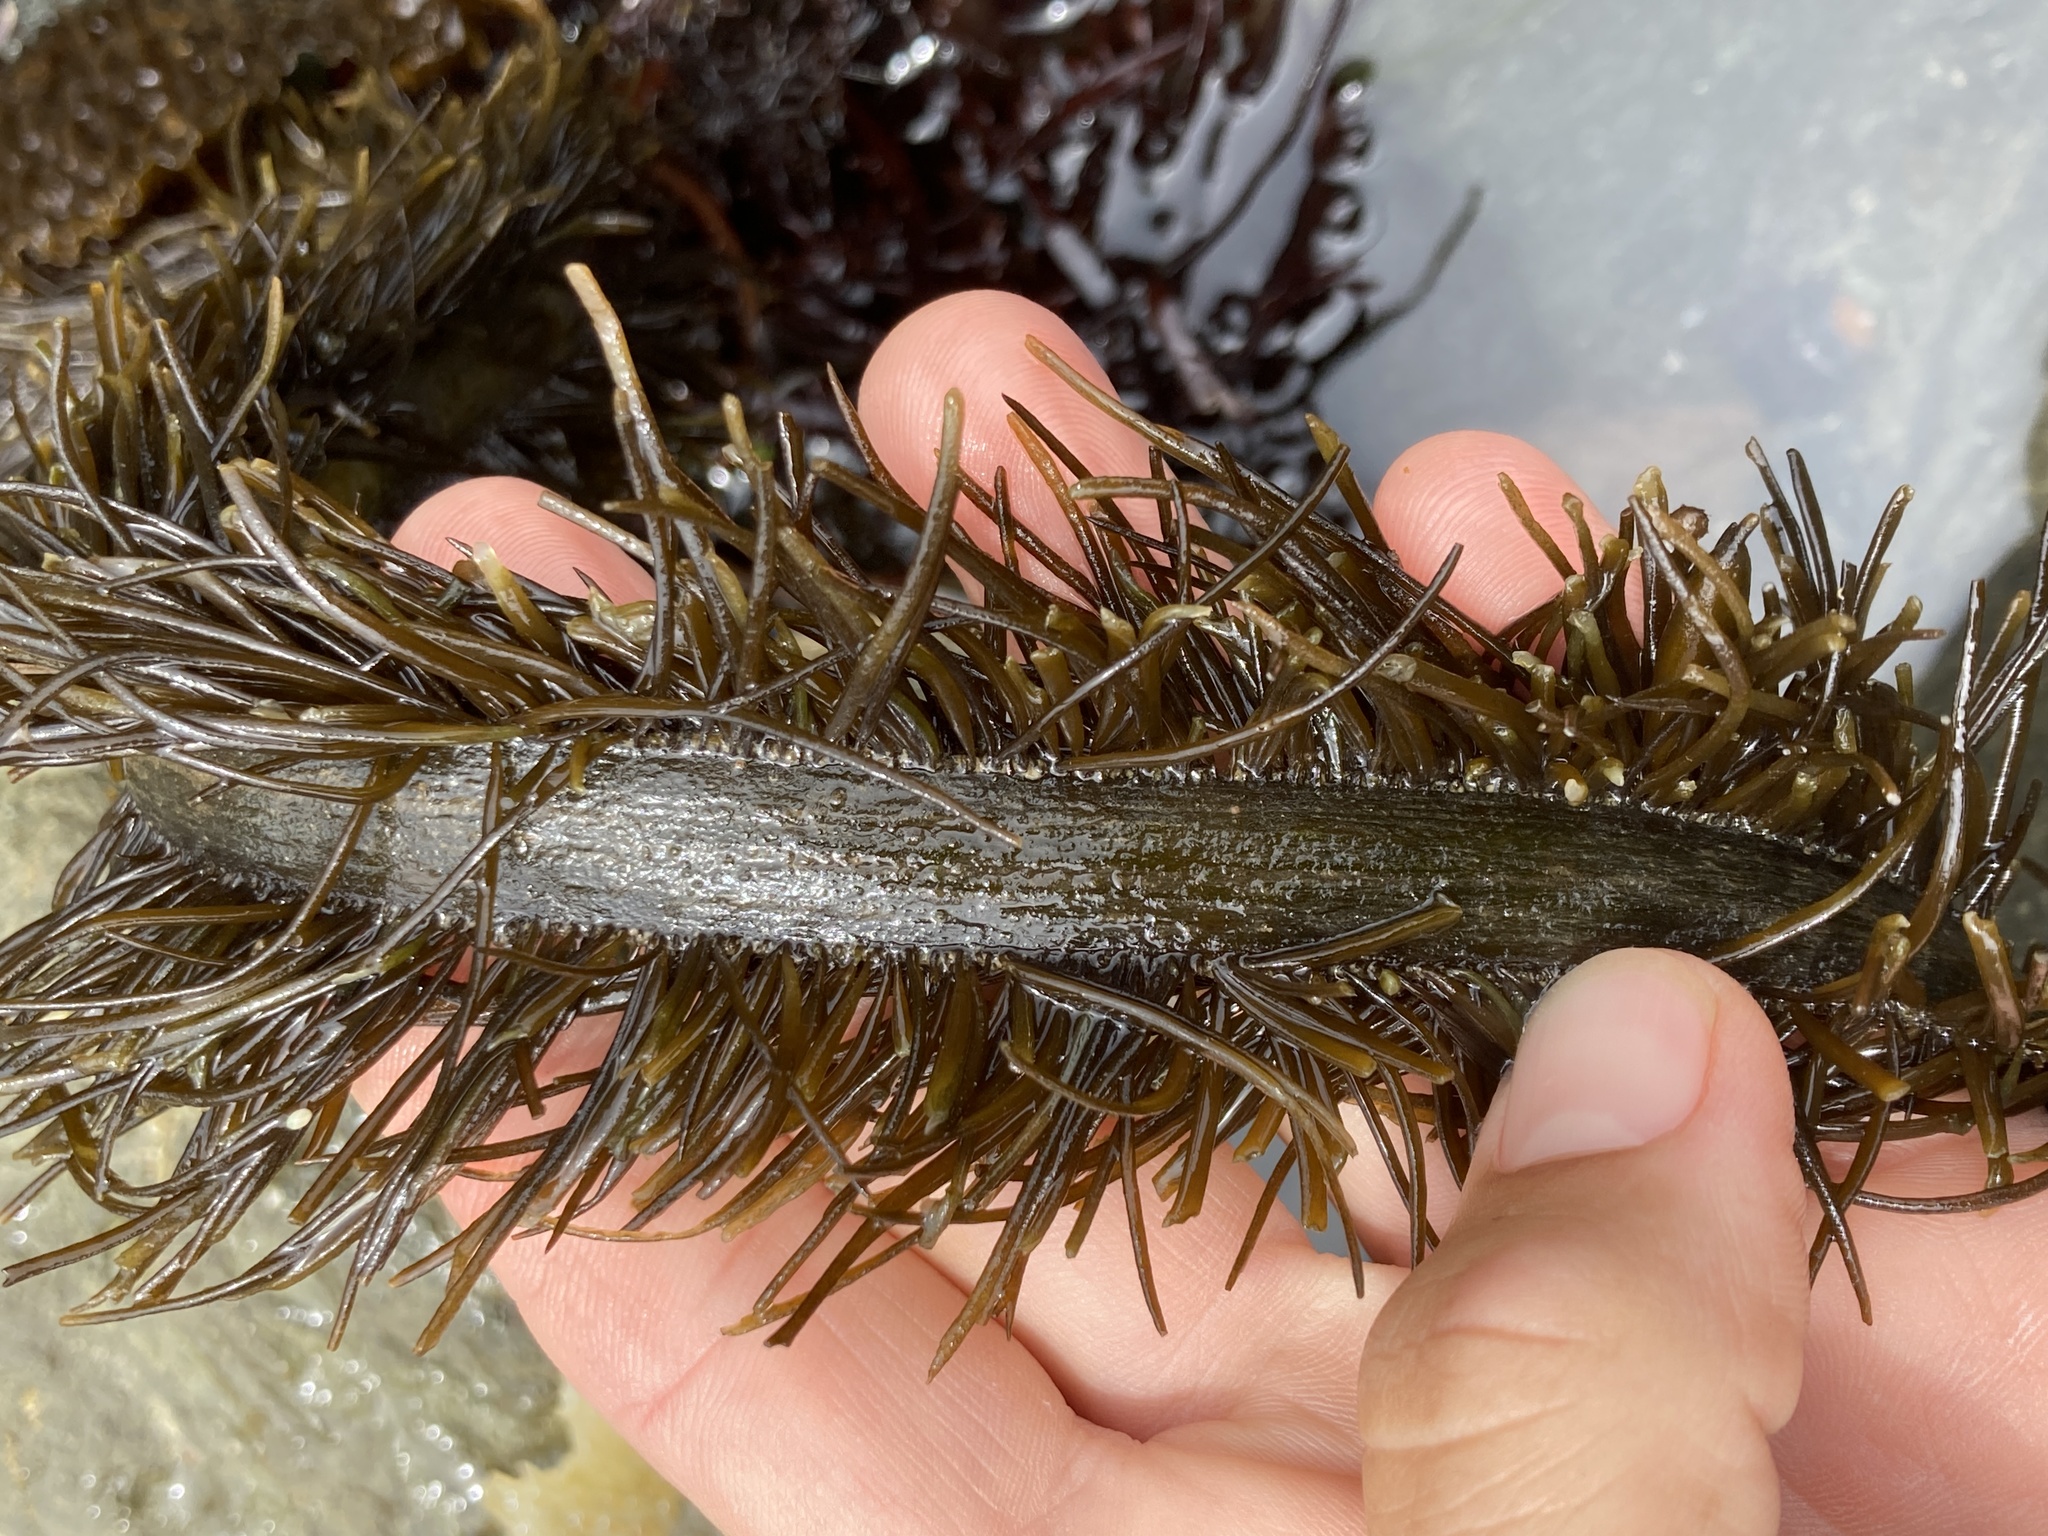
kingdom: Chromista
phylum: Ochrophyta
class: Phaeophyceae
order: Laminariales
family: Lessoniaceae
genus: Egregia
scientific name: Egregia menziesii
